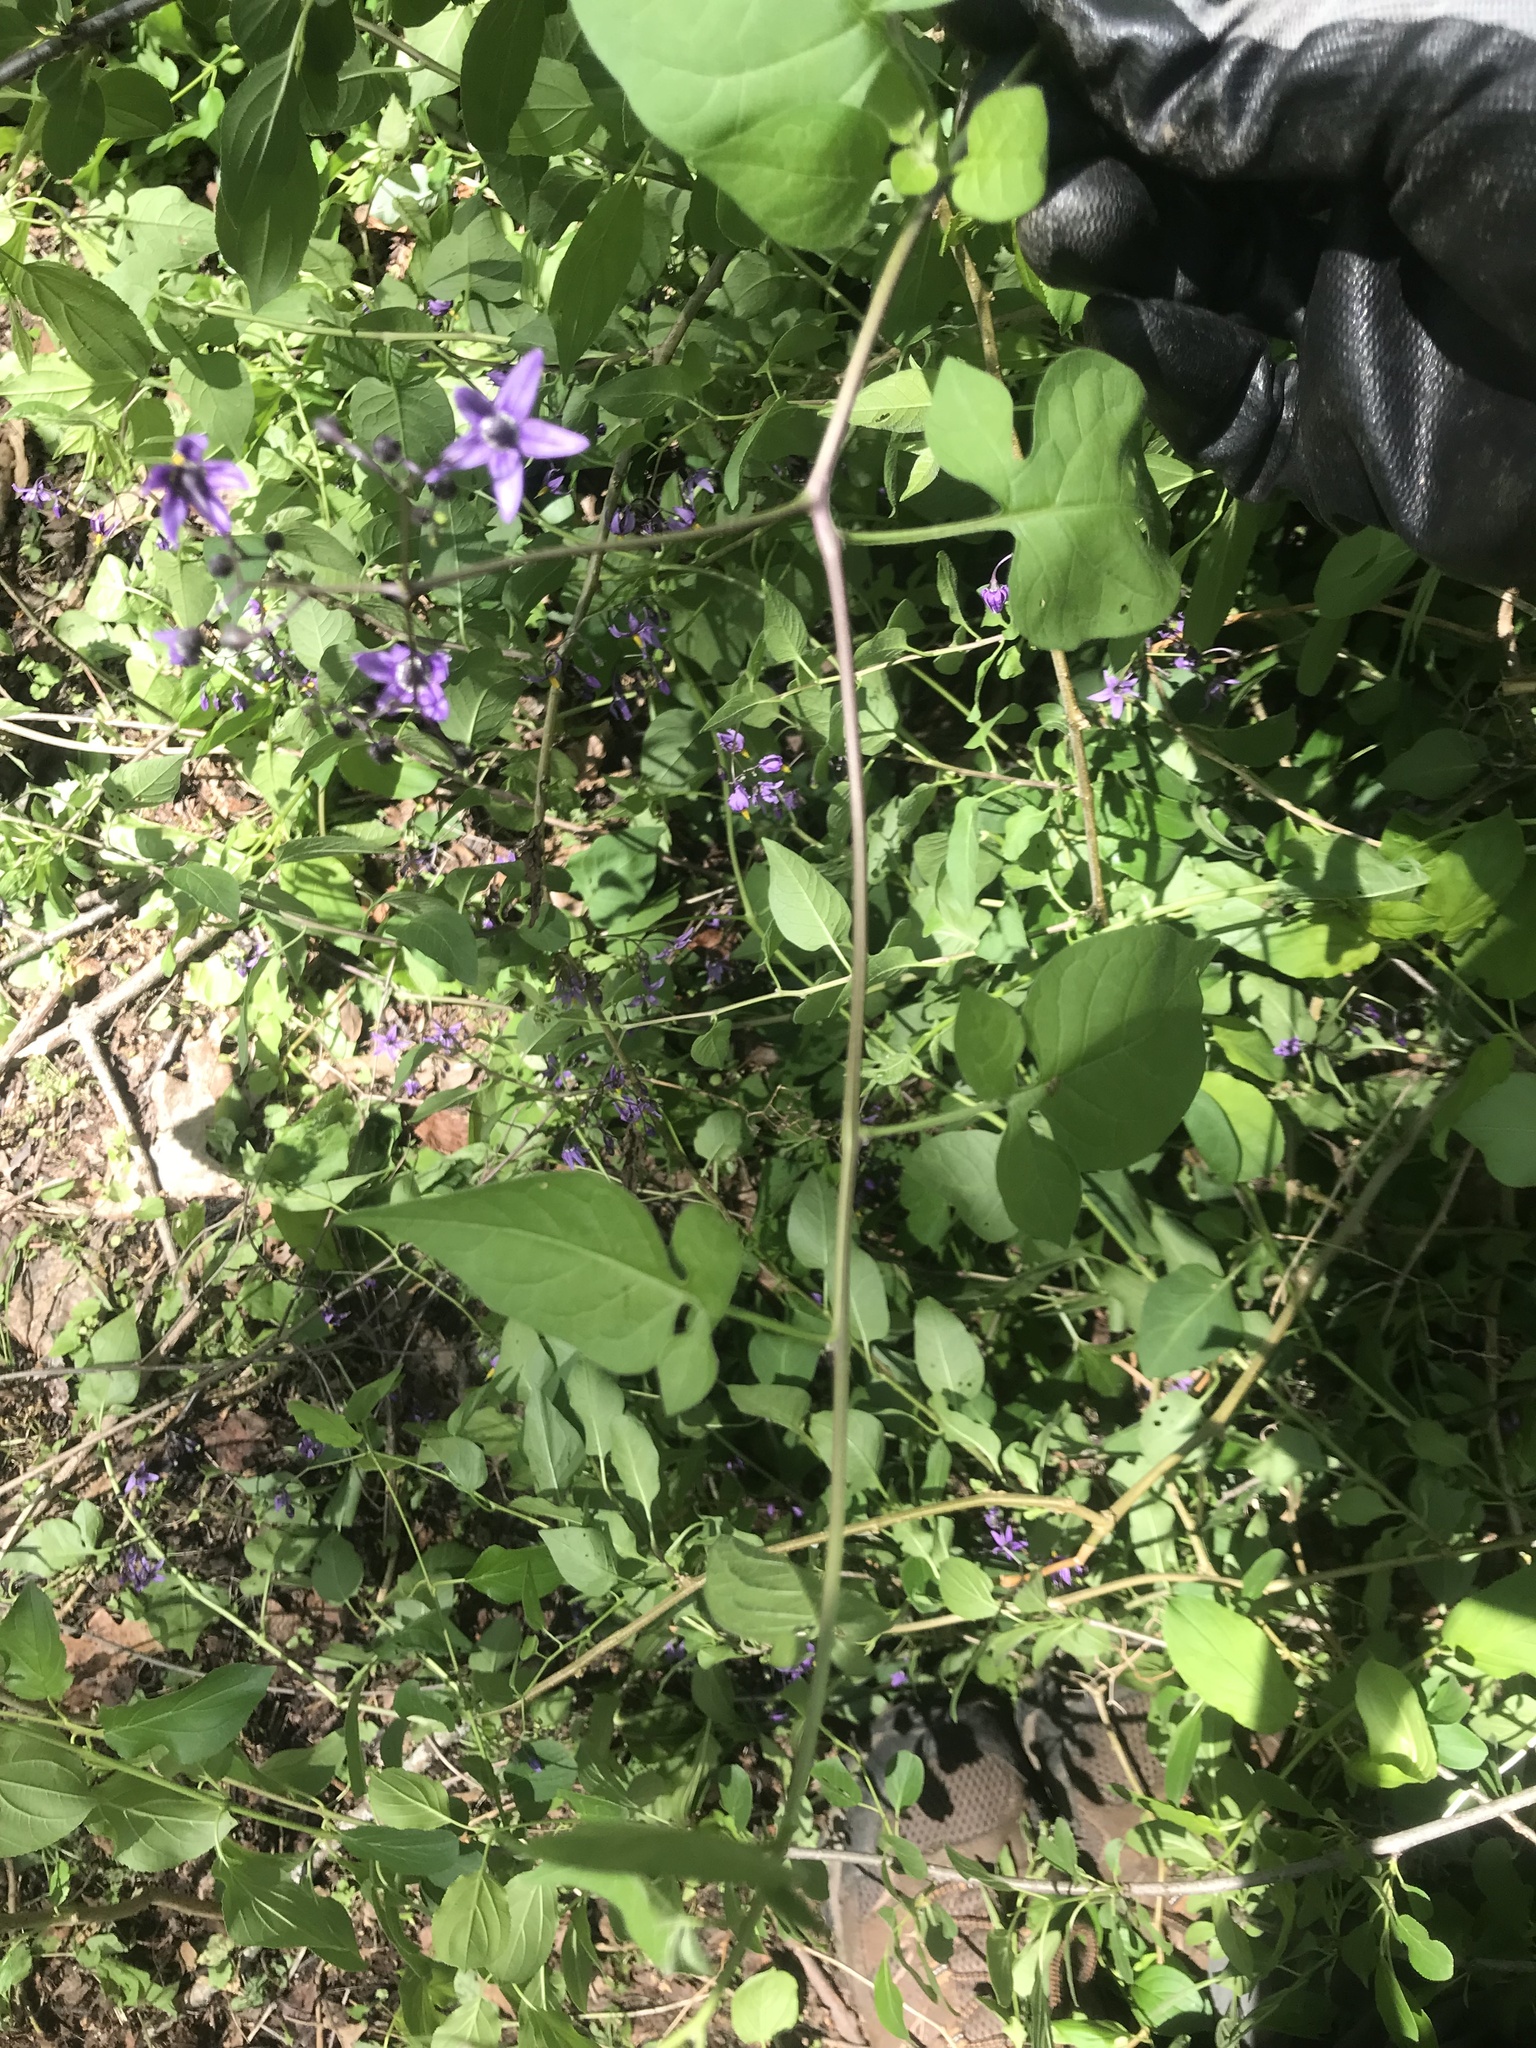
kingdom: Plantae
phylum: Tracheophyta
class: Magnoliopsida
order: Solanales
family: Solanaceae
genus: Solanum
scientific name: Solanum dulcamara
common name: Climbing nightshade
